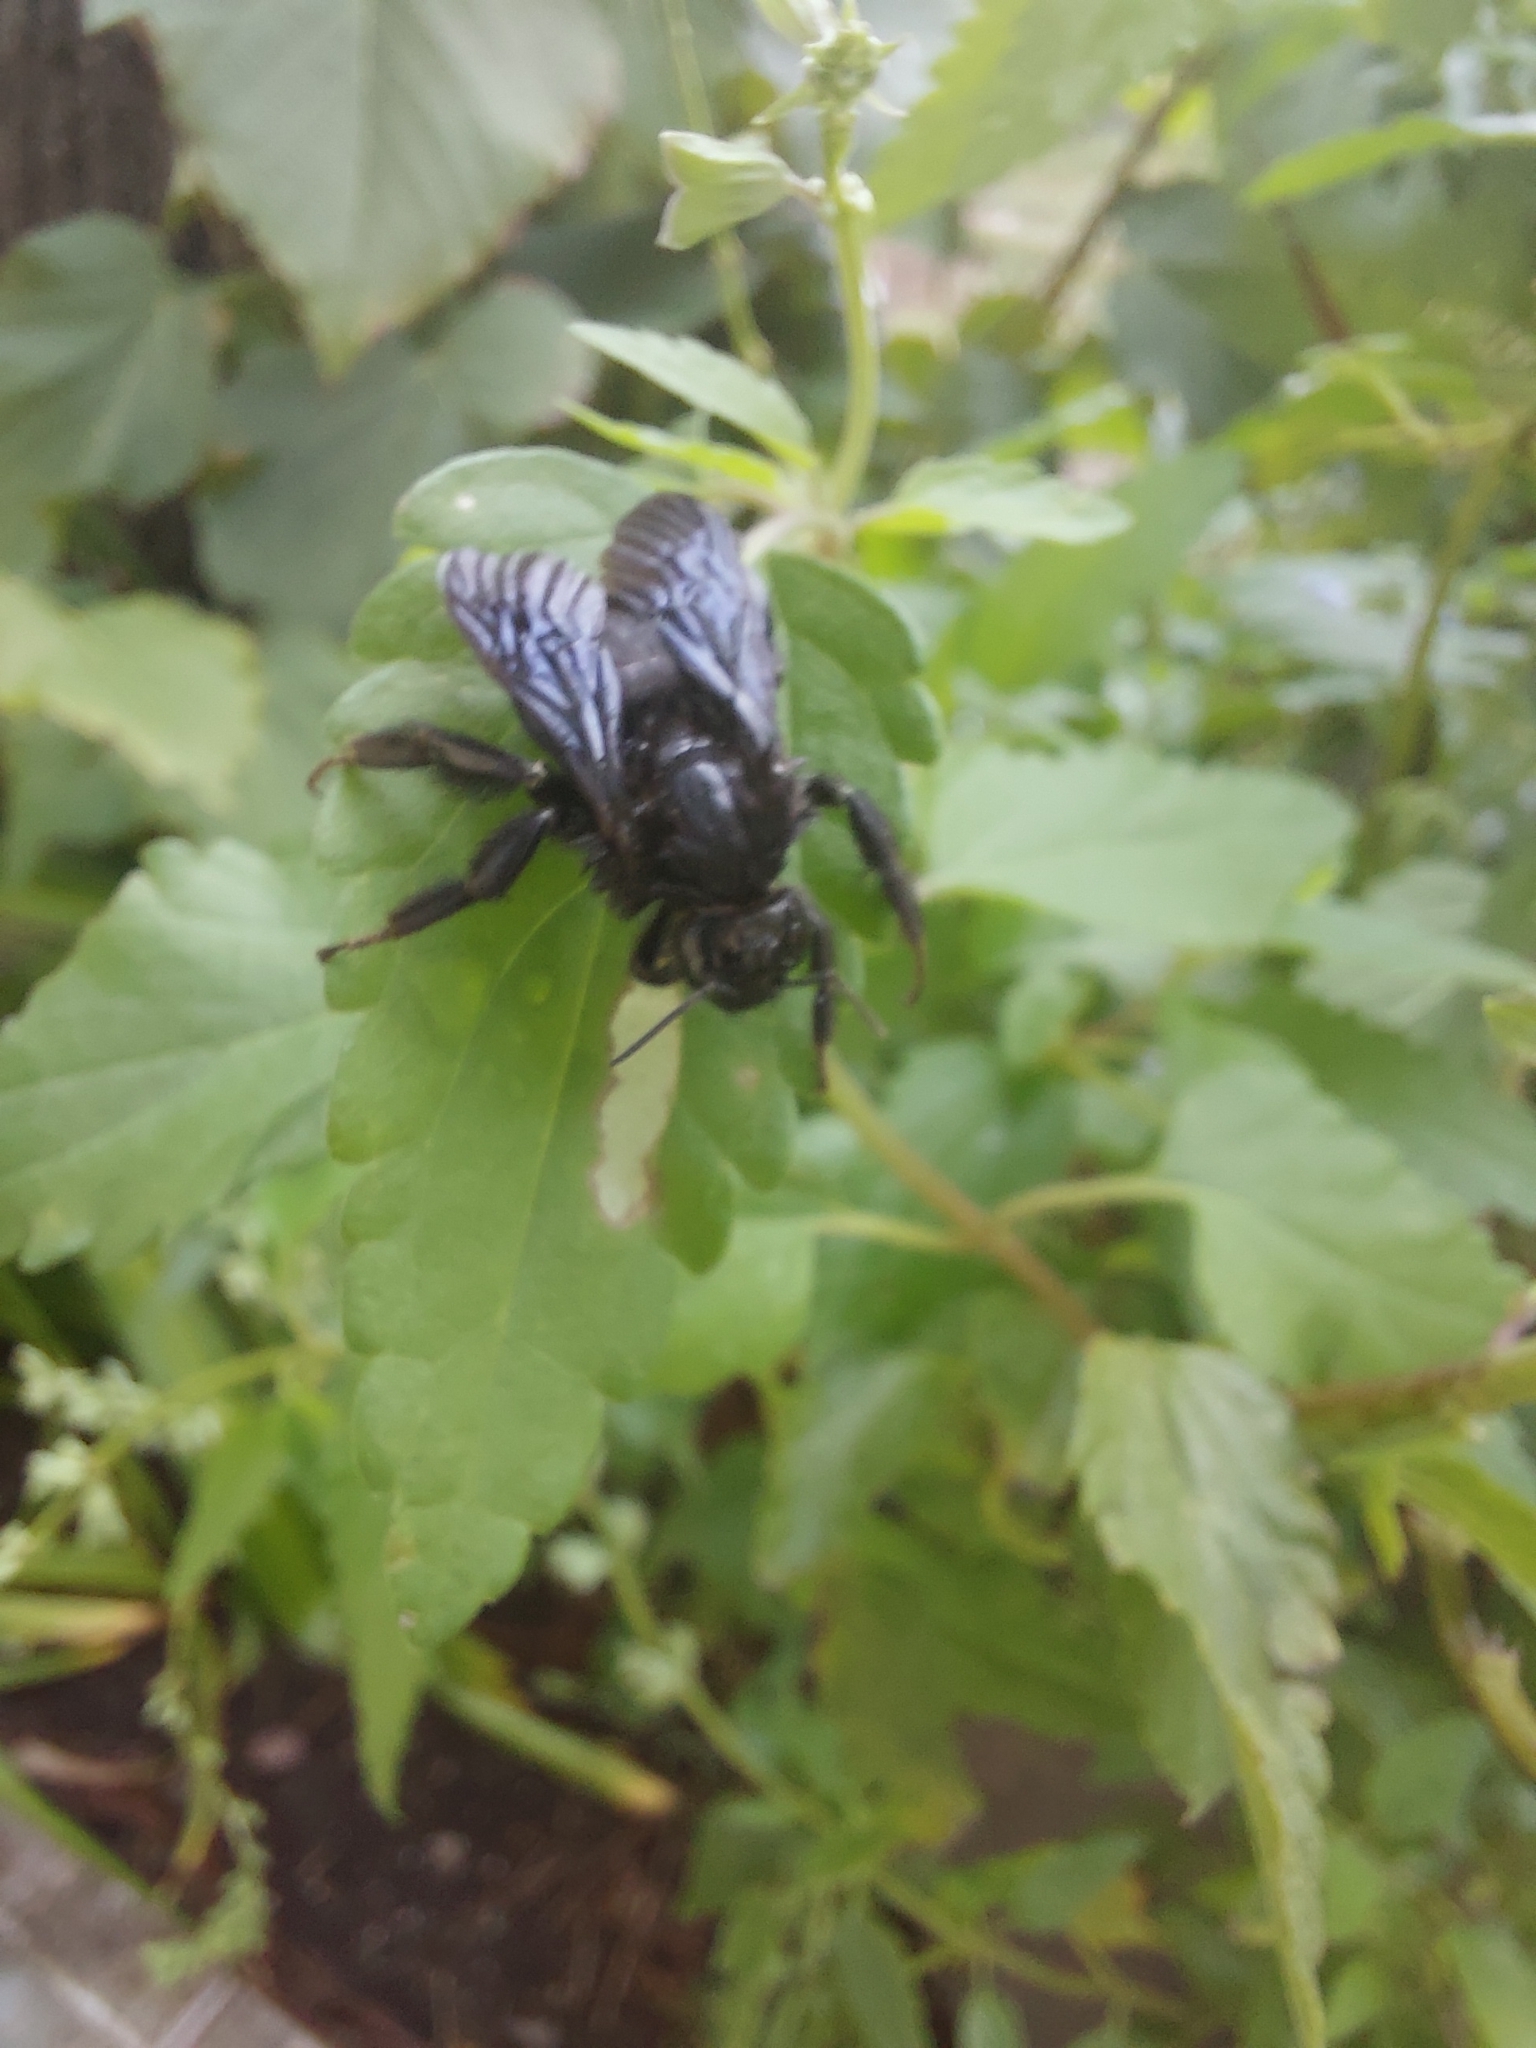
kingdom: Animalia
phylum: Arthropoda
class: Insecta
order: Hymenoptera
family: Apidae
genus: Bombus
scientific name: Bombus pauloensis
